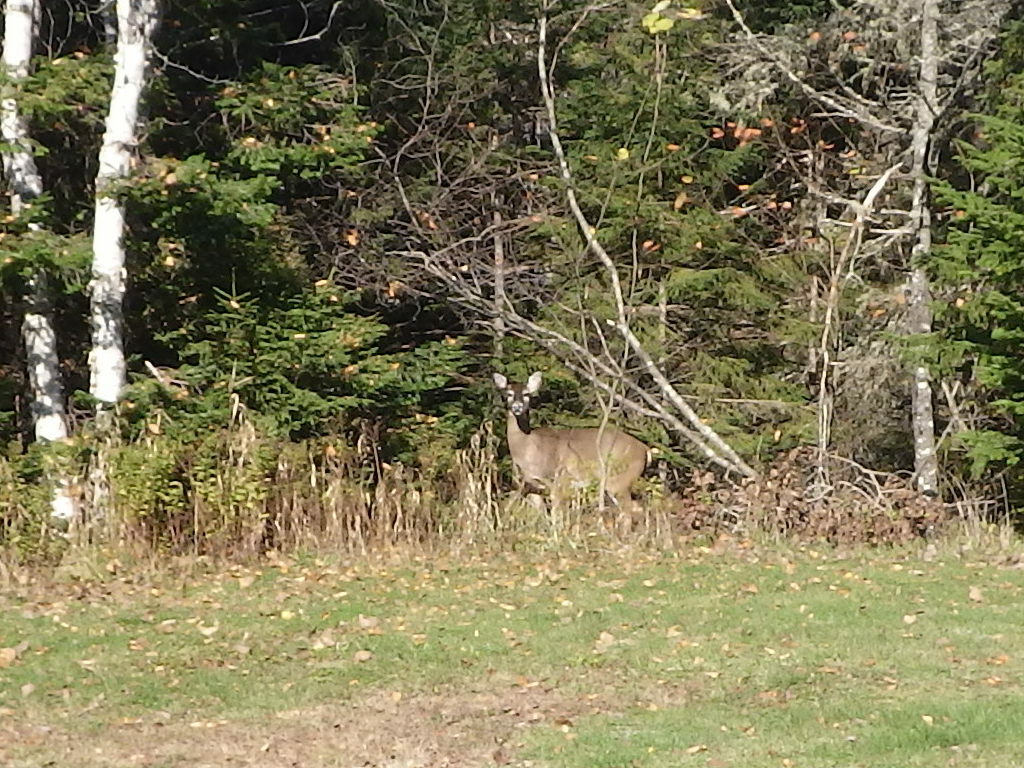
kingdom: Animalia
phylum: Chordata
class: Mammalia
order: Artiodactyla
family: Cervidae
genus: Odocoileus
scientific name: Odocoileus virginianus
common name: White-tailed deer
